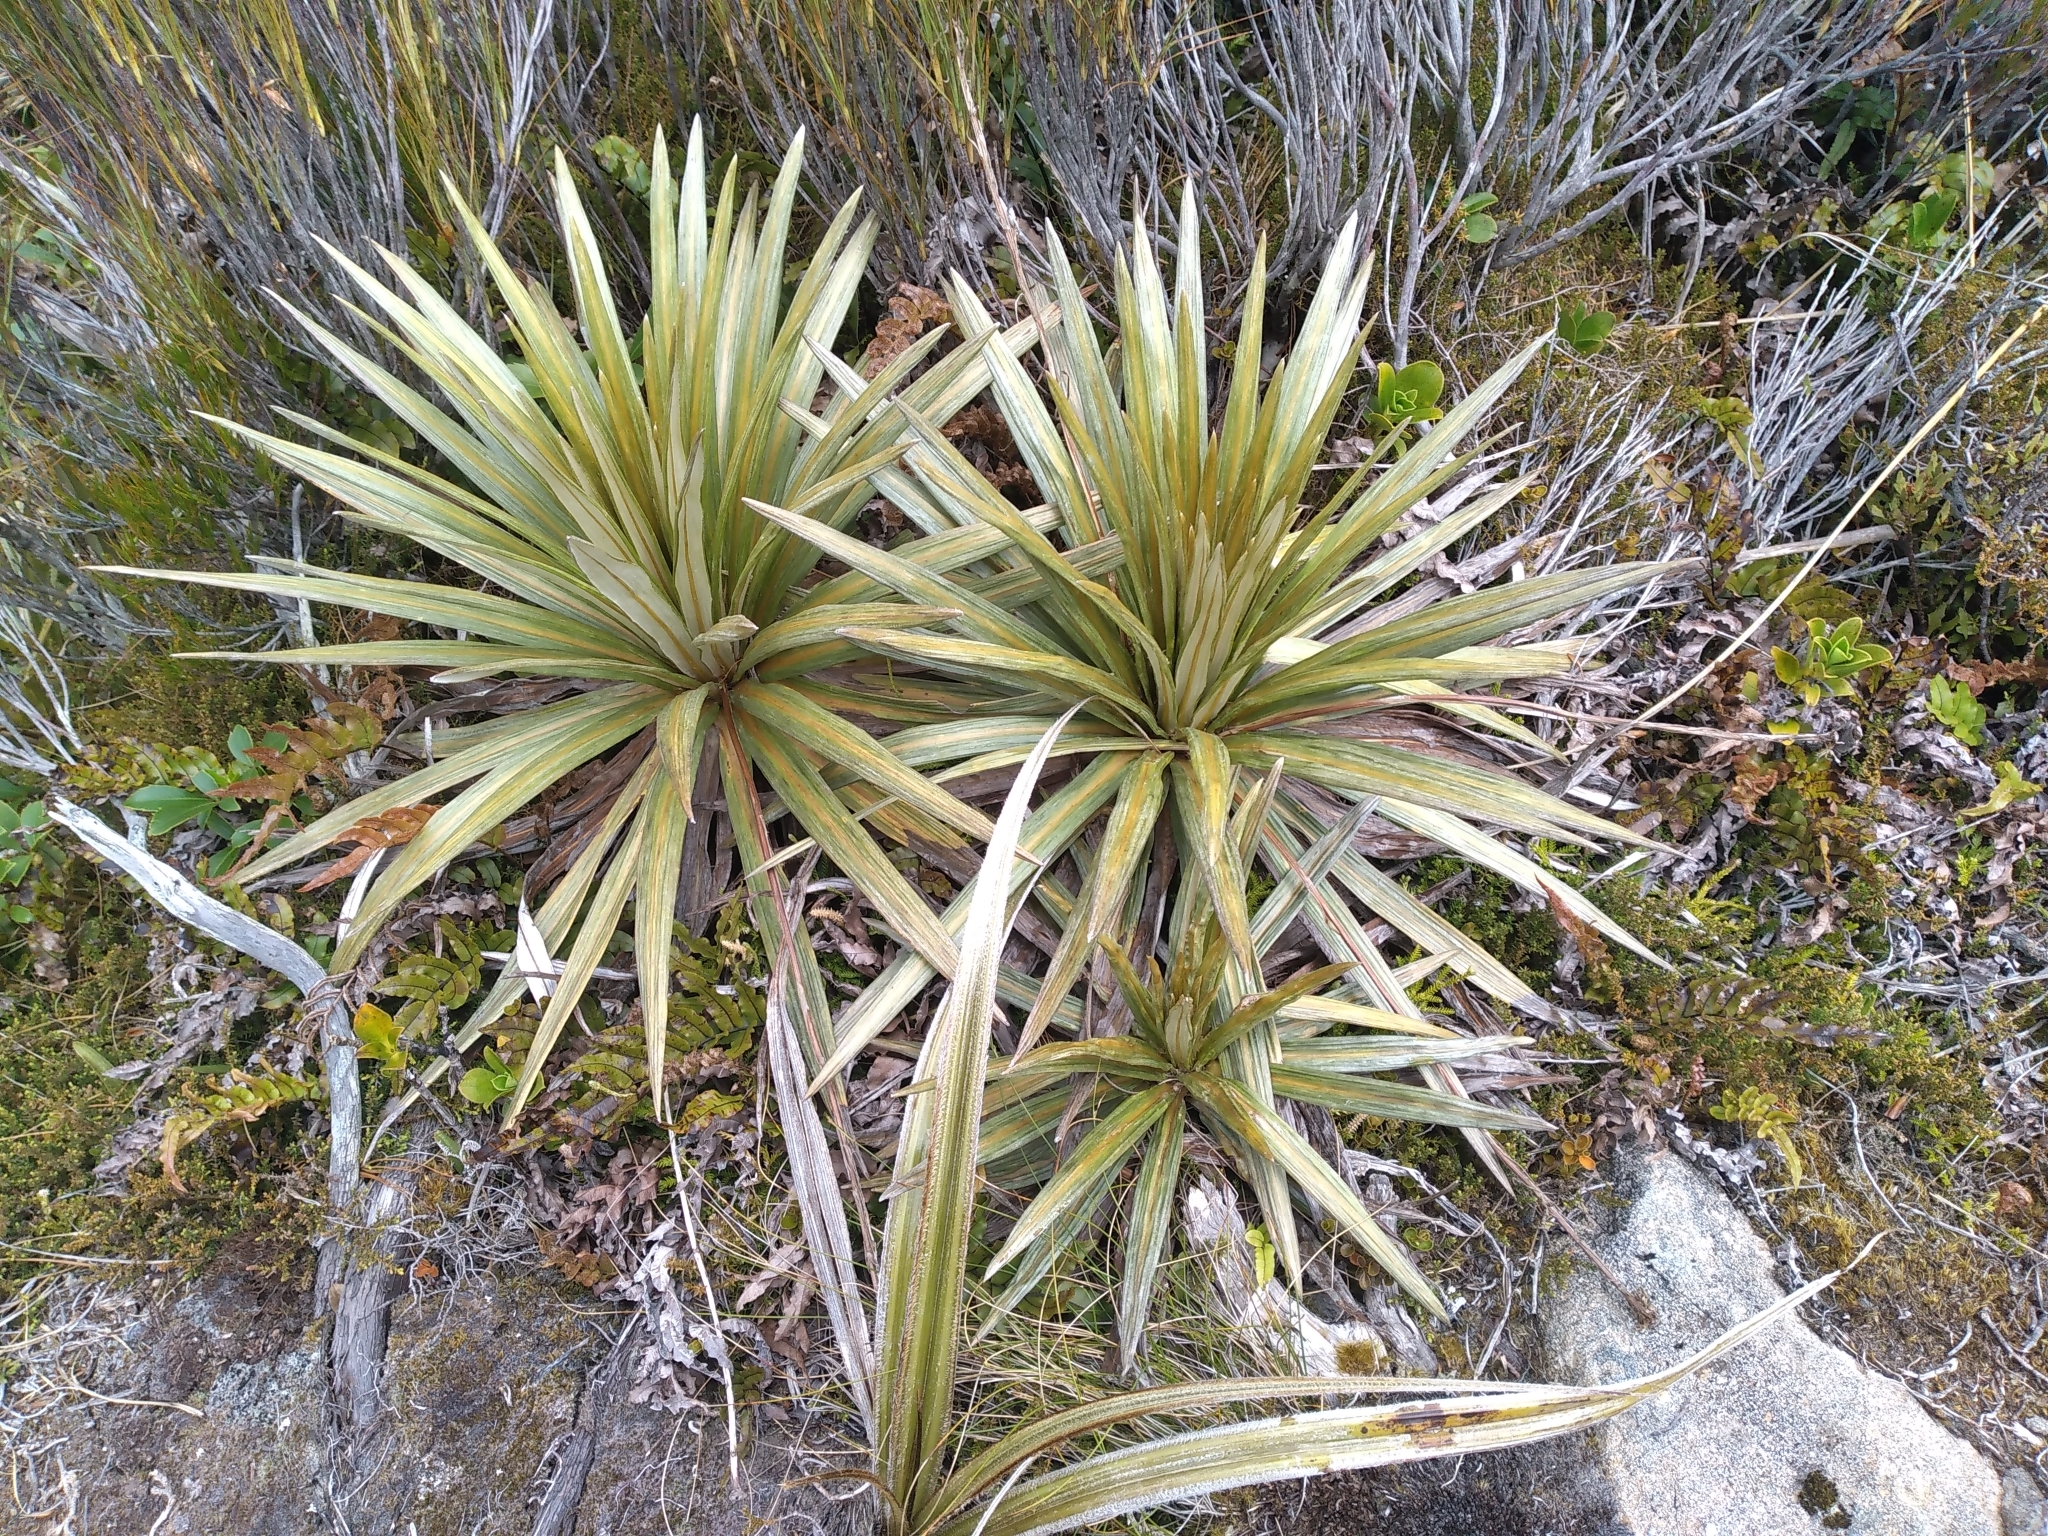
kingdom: Plantae
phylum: Tracheophyta
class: Magnoliopsida
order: Asterales
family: Asteraceae
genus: Celmisia
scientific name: Celmisia armstrongii
